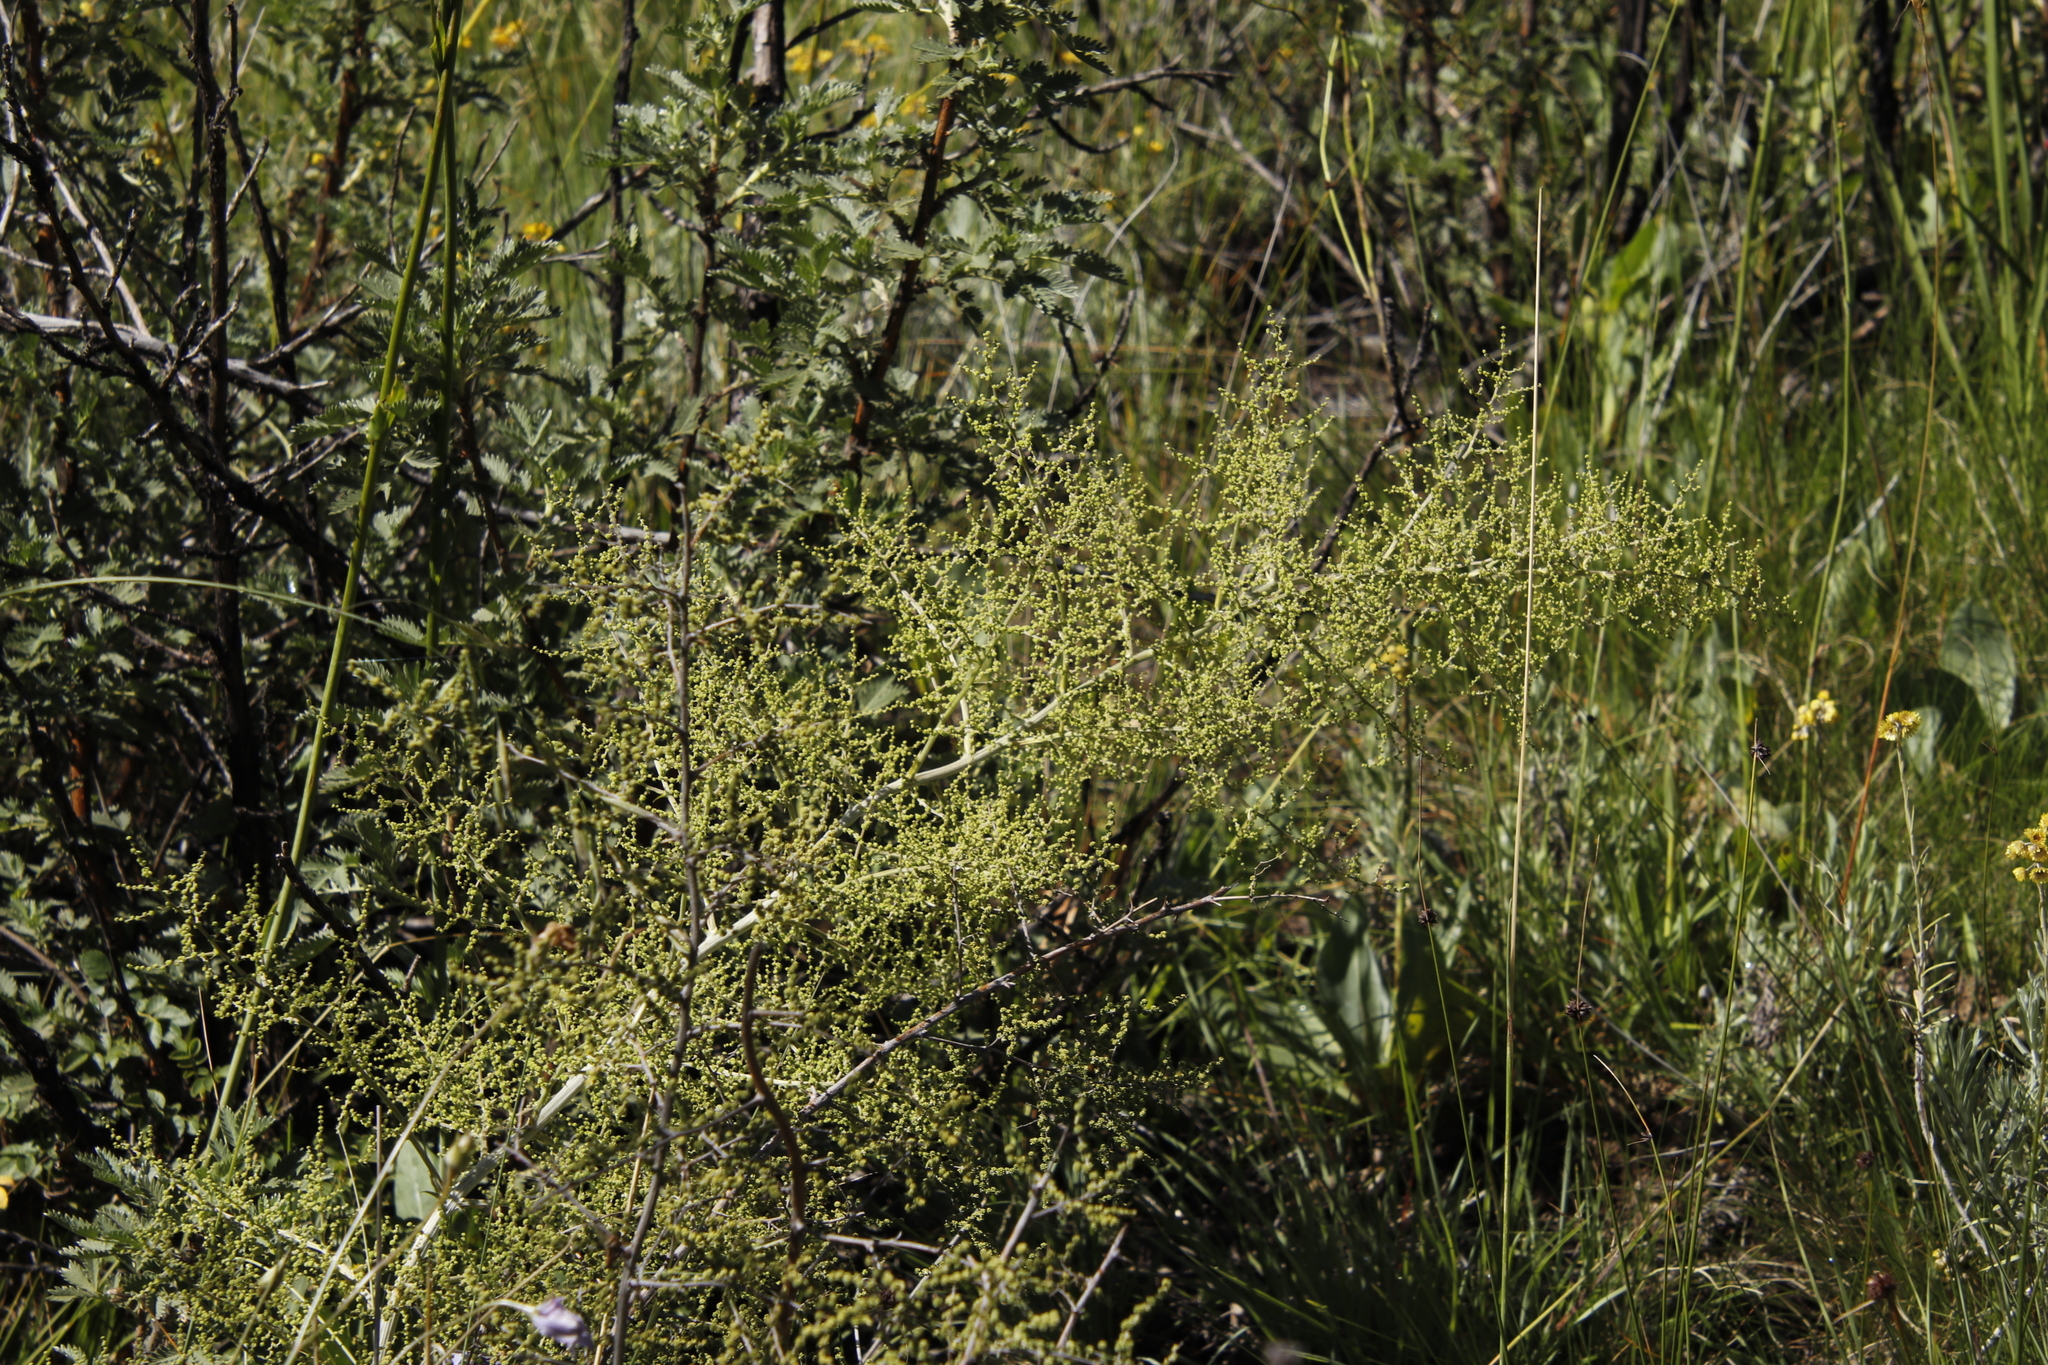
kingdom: Plantae
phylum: Tracheophyta
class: Liliopsida
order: Asparagales
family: Asparagaceae
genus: Asparagus
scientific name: Asparagus stellatus
